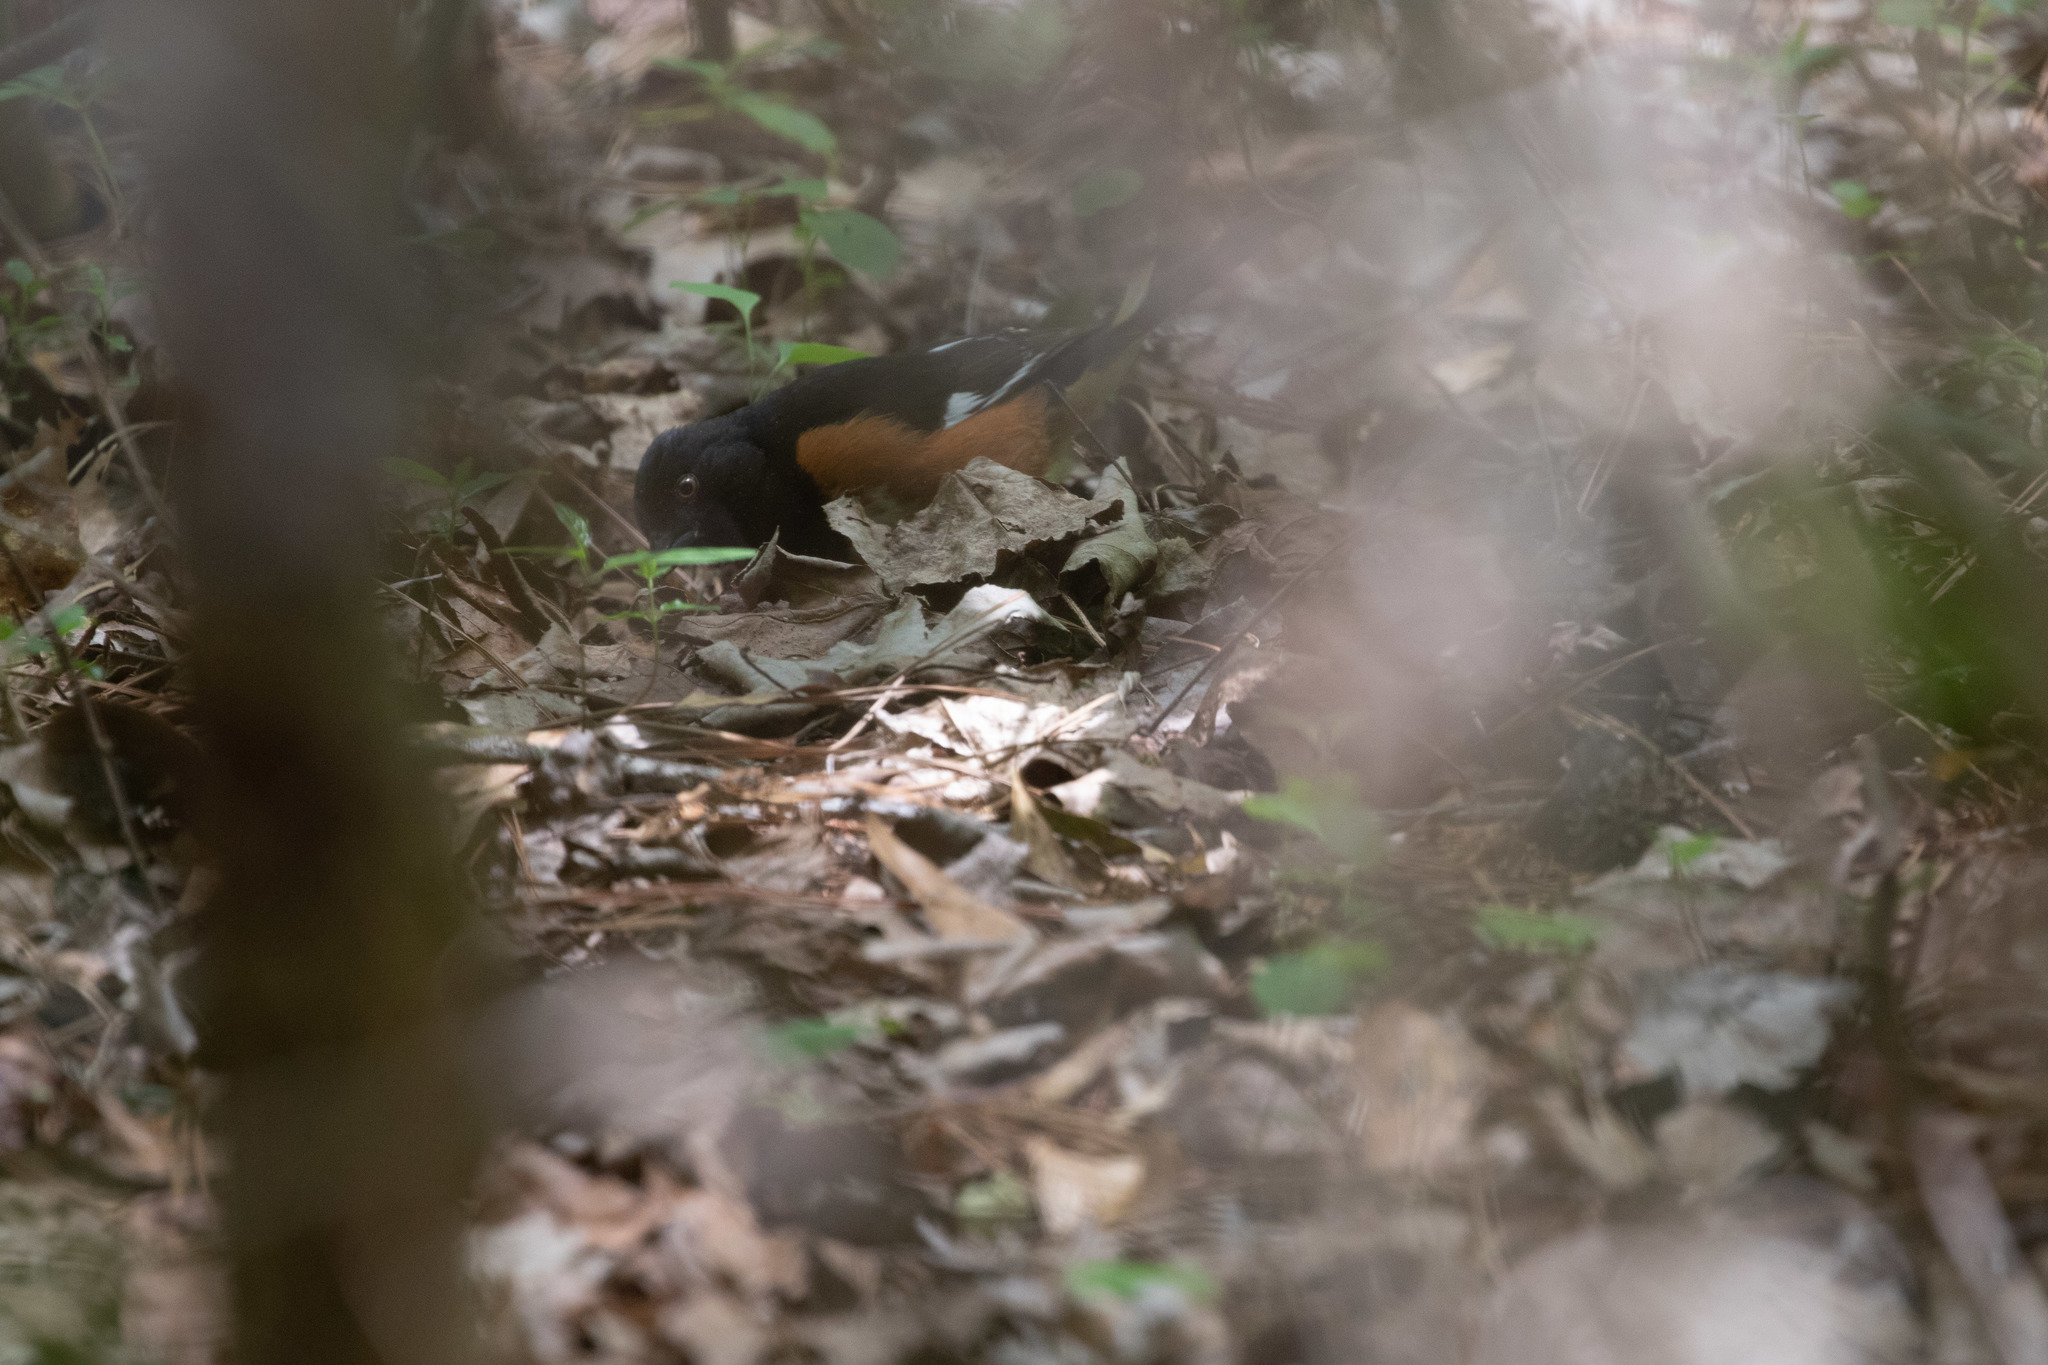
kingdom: Animalia
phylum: Chordata
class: Aves
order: Passeriformes
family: Passerellidae
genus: Pipilo
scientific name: Pipilo erythrophthalmus
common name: Eastern towhee
